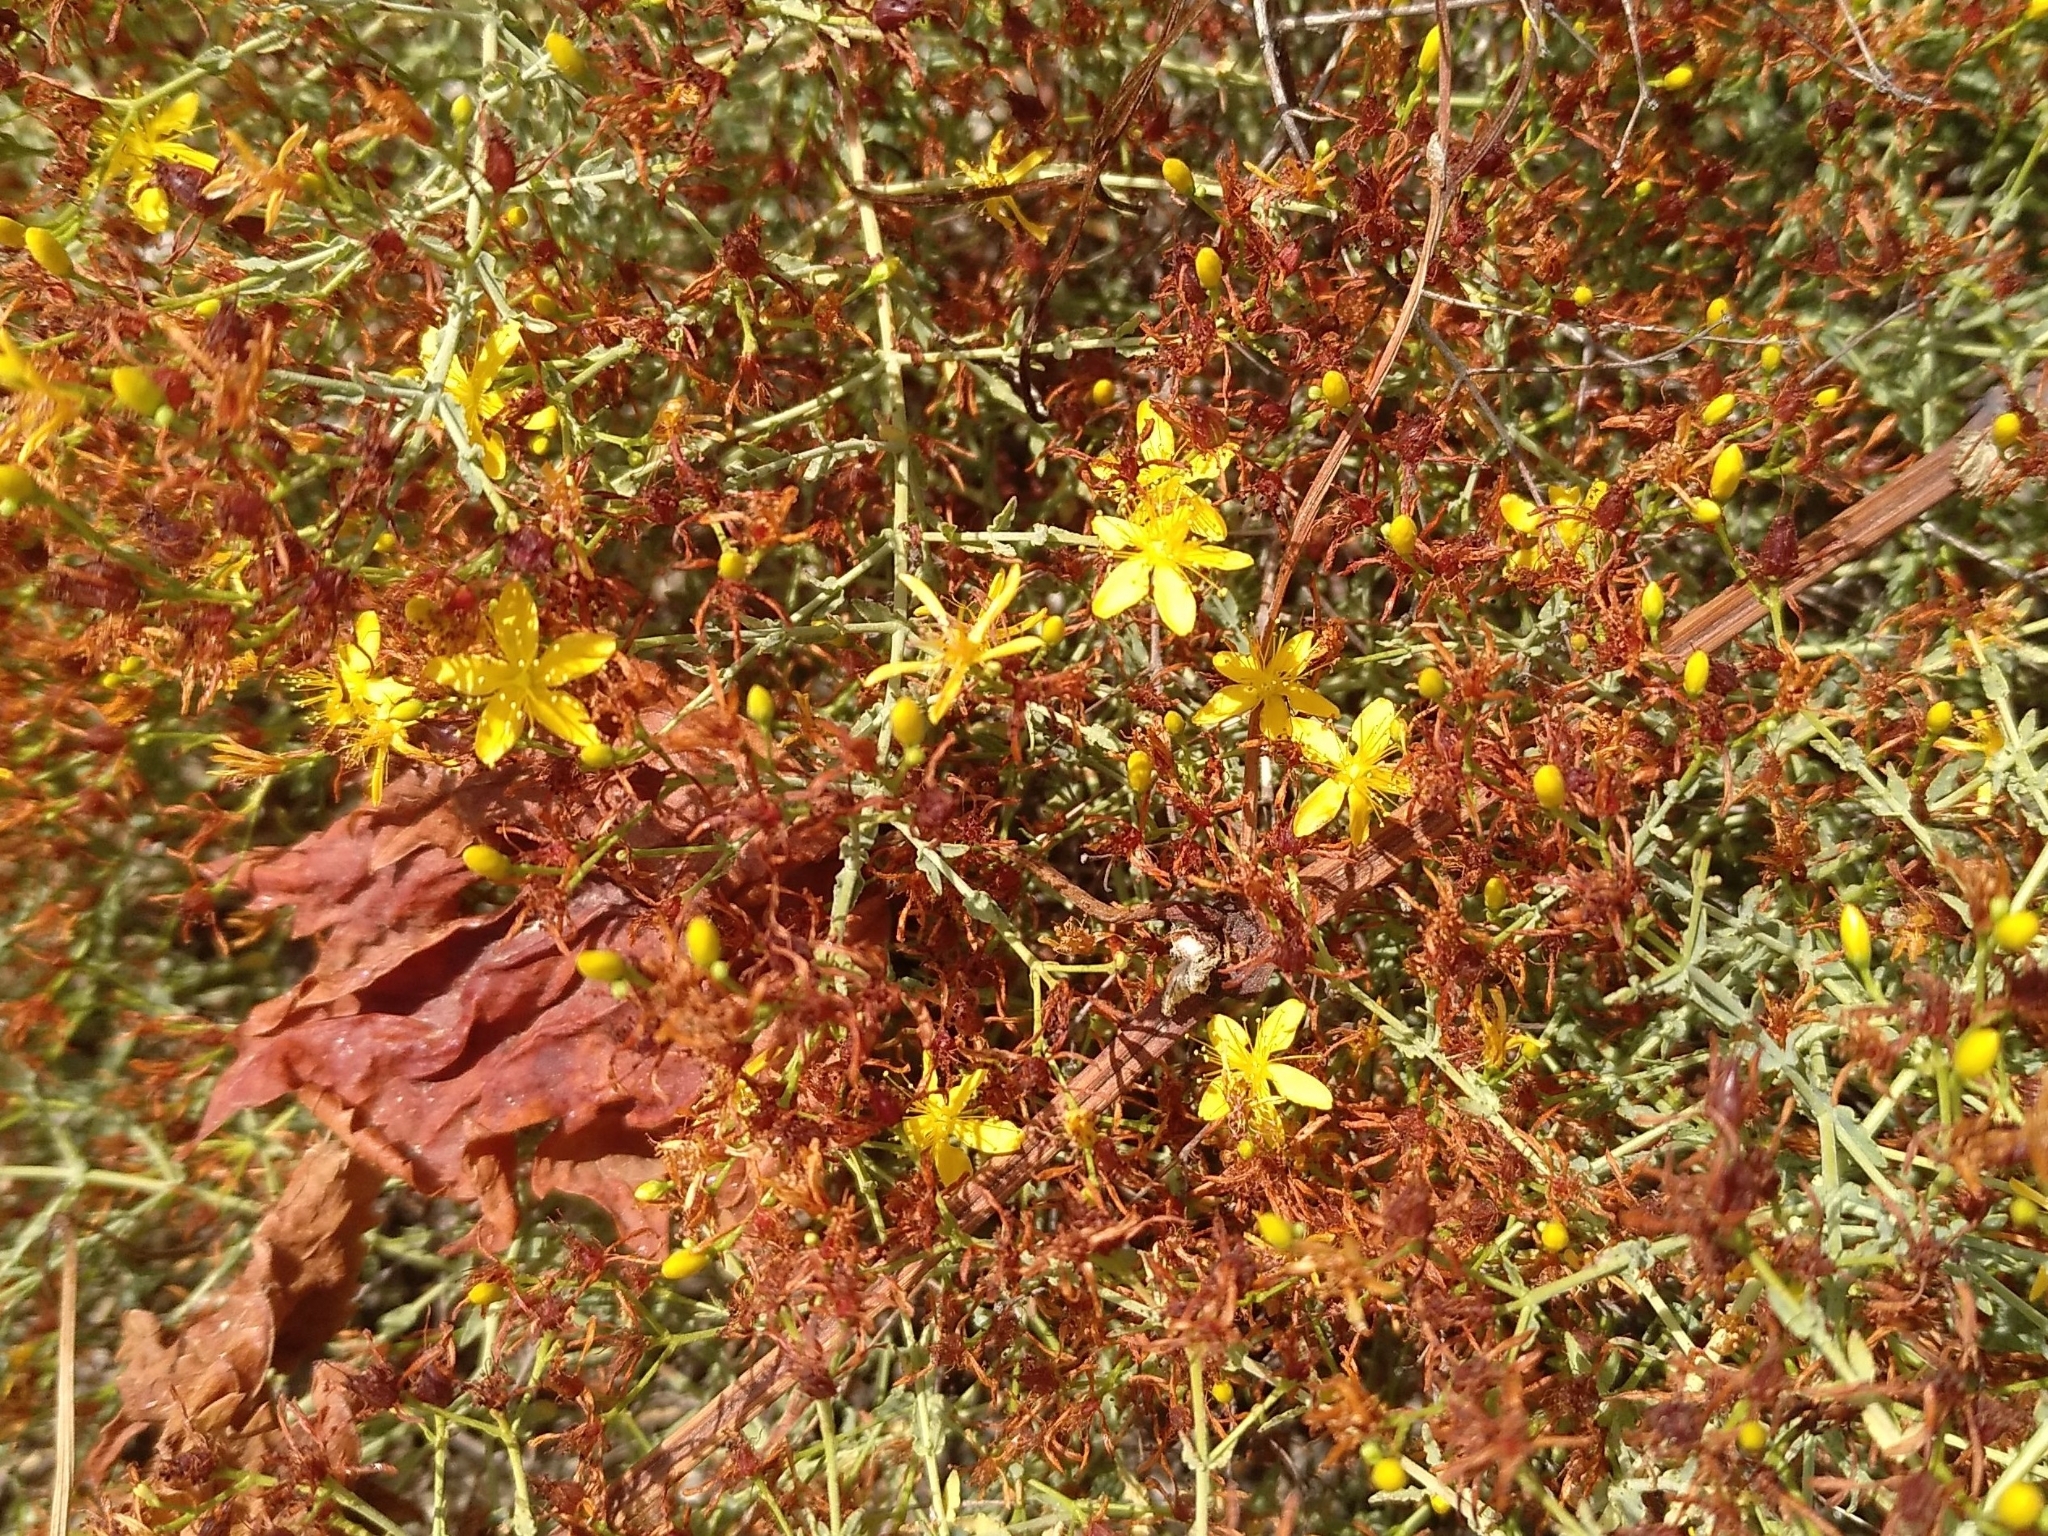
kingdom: Plantae
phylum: Tracheophyta
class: Magnoliopsida
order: Malpighiales
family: Hypericaceae
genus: Hypericum
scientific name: Hypericum triquetrifolium
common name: Tangled hypericum
